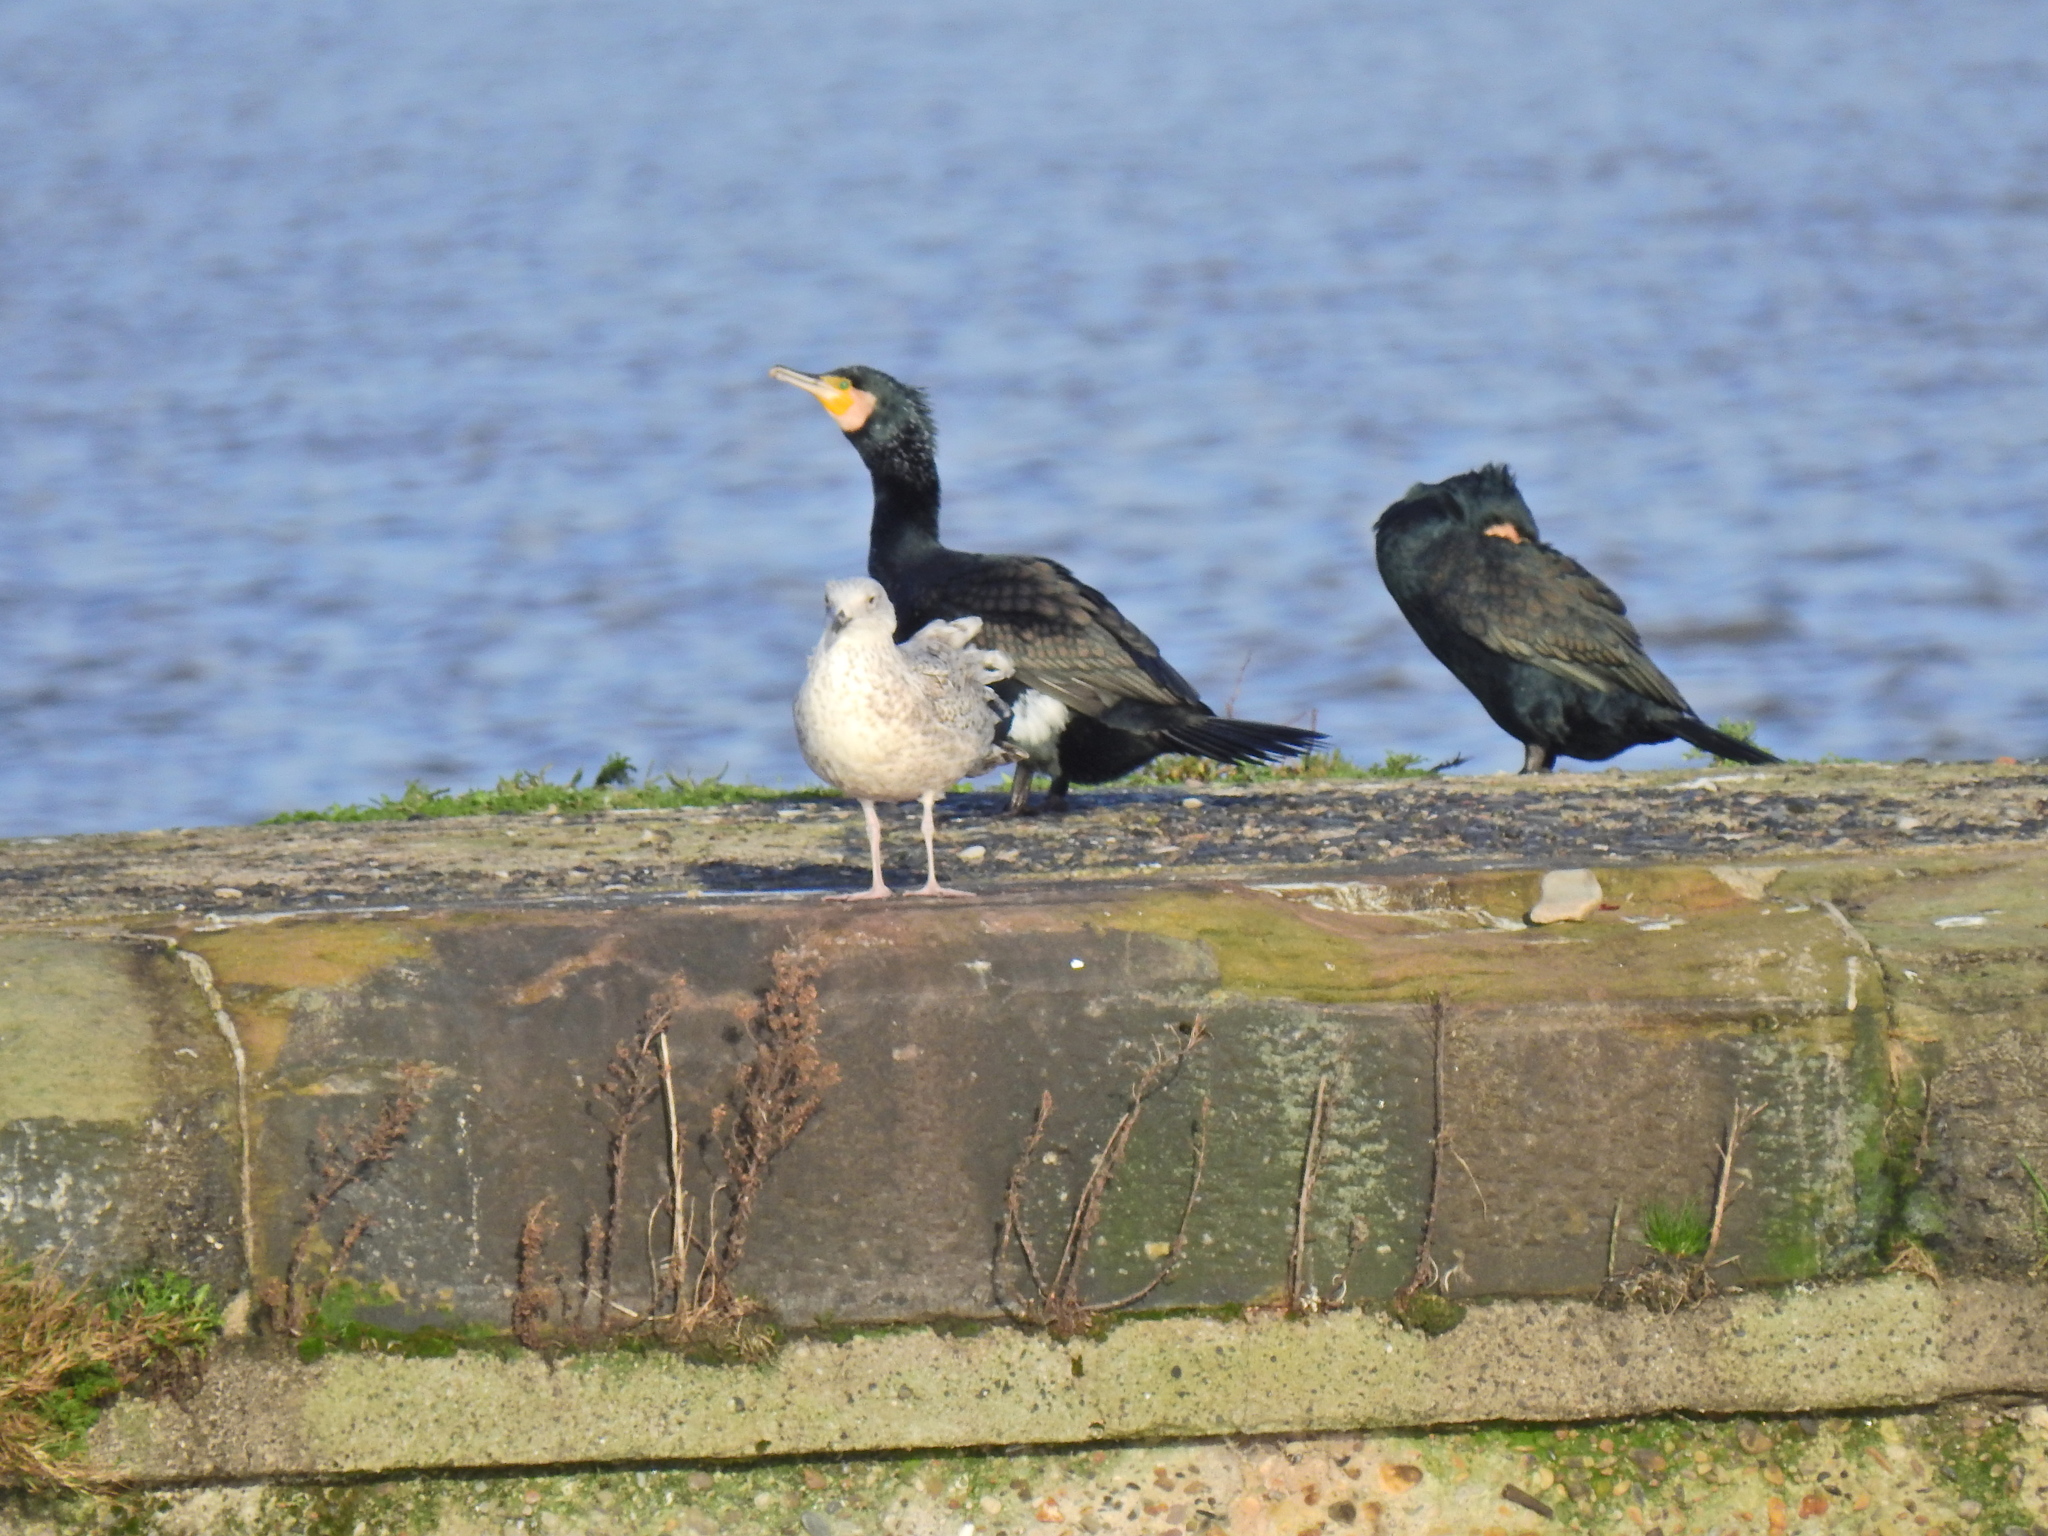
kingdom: Animalia
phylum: Chordata
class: Aves
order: Suliformes
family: Phalacrocoracidae
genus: Phalacrocorax
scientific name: Phalacrocorax carbo
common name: Great cormorant
